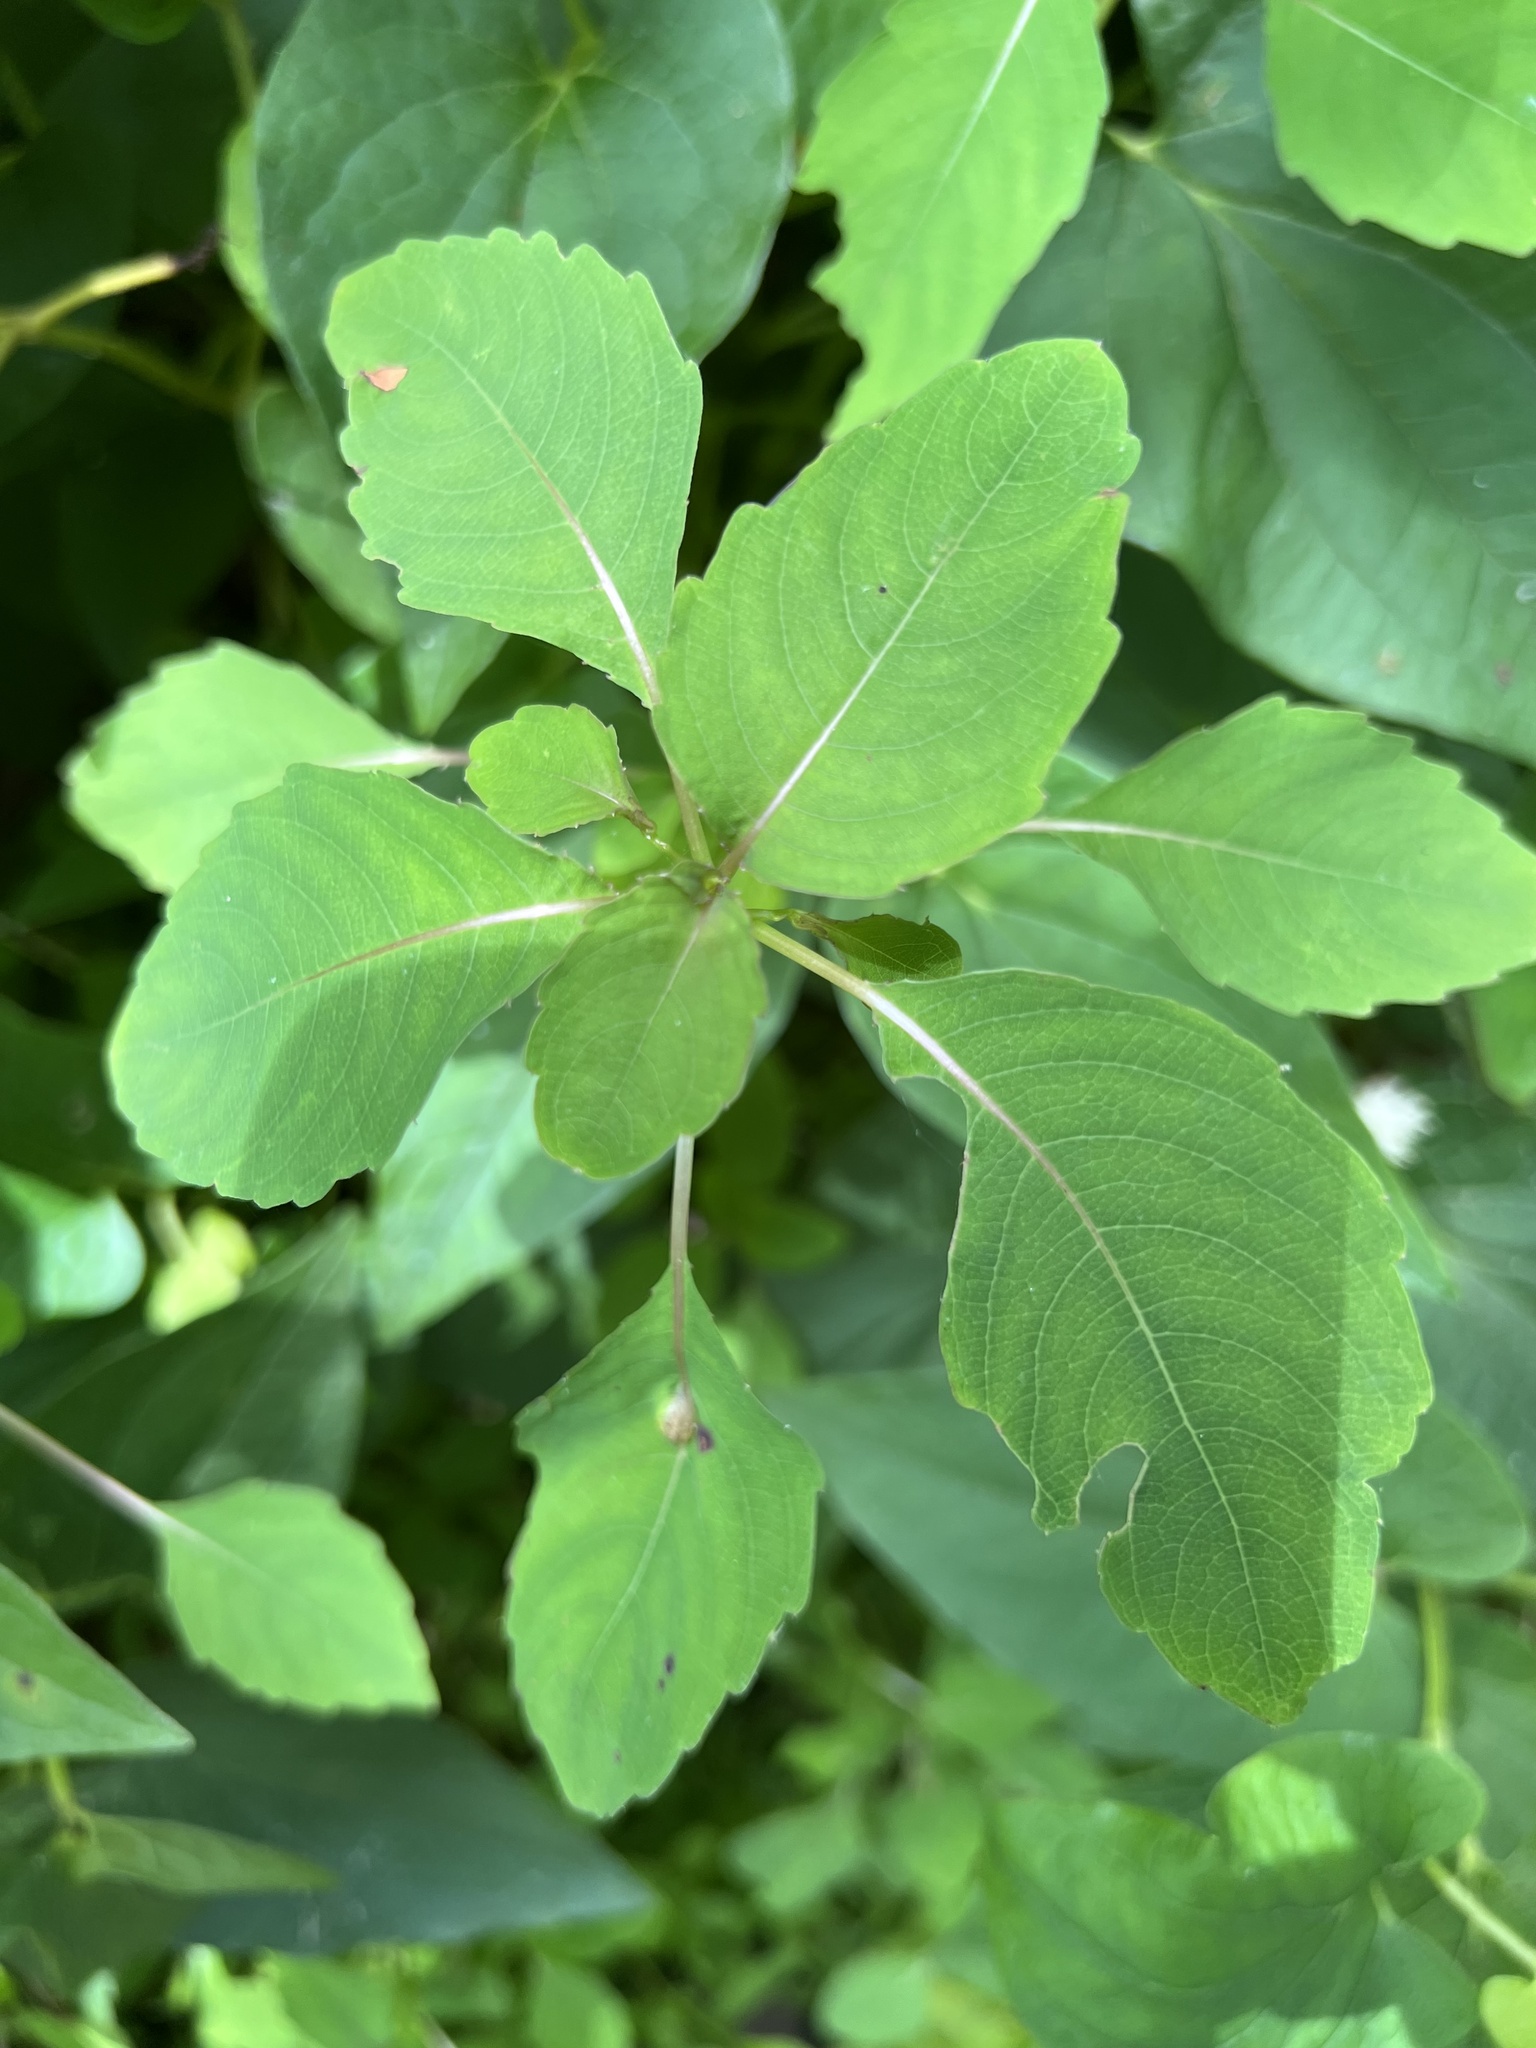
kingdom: Animalia
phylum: Arthropoda
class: Insecta
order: Diptera
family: Cecidomyiidae
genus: Neolasioptera
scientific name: Neolasioptera impatientifolia
